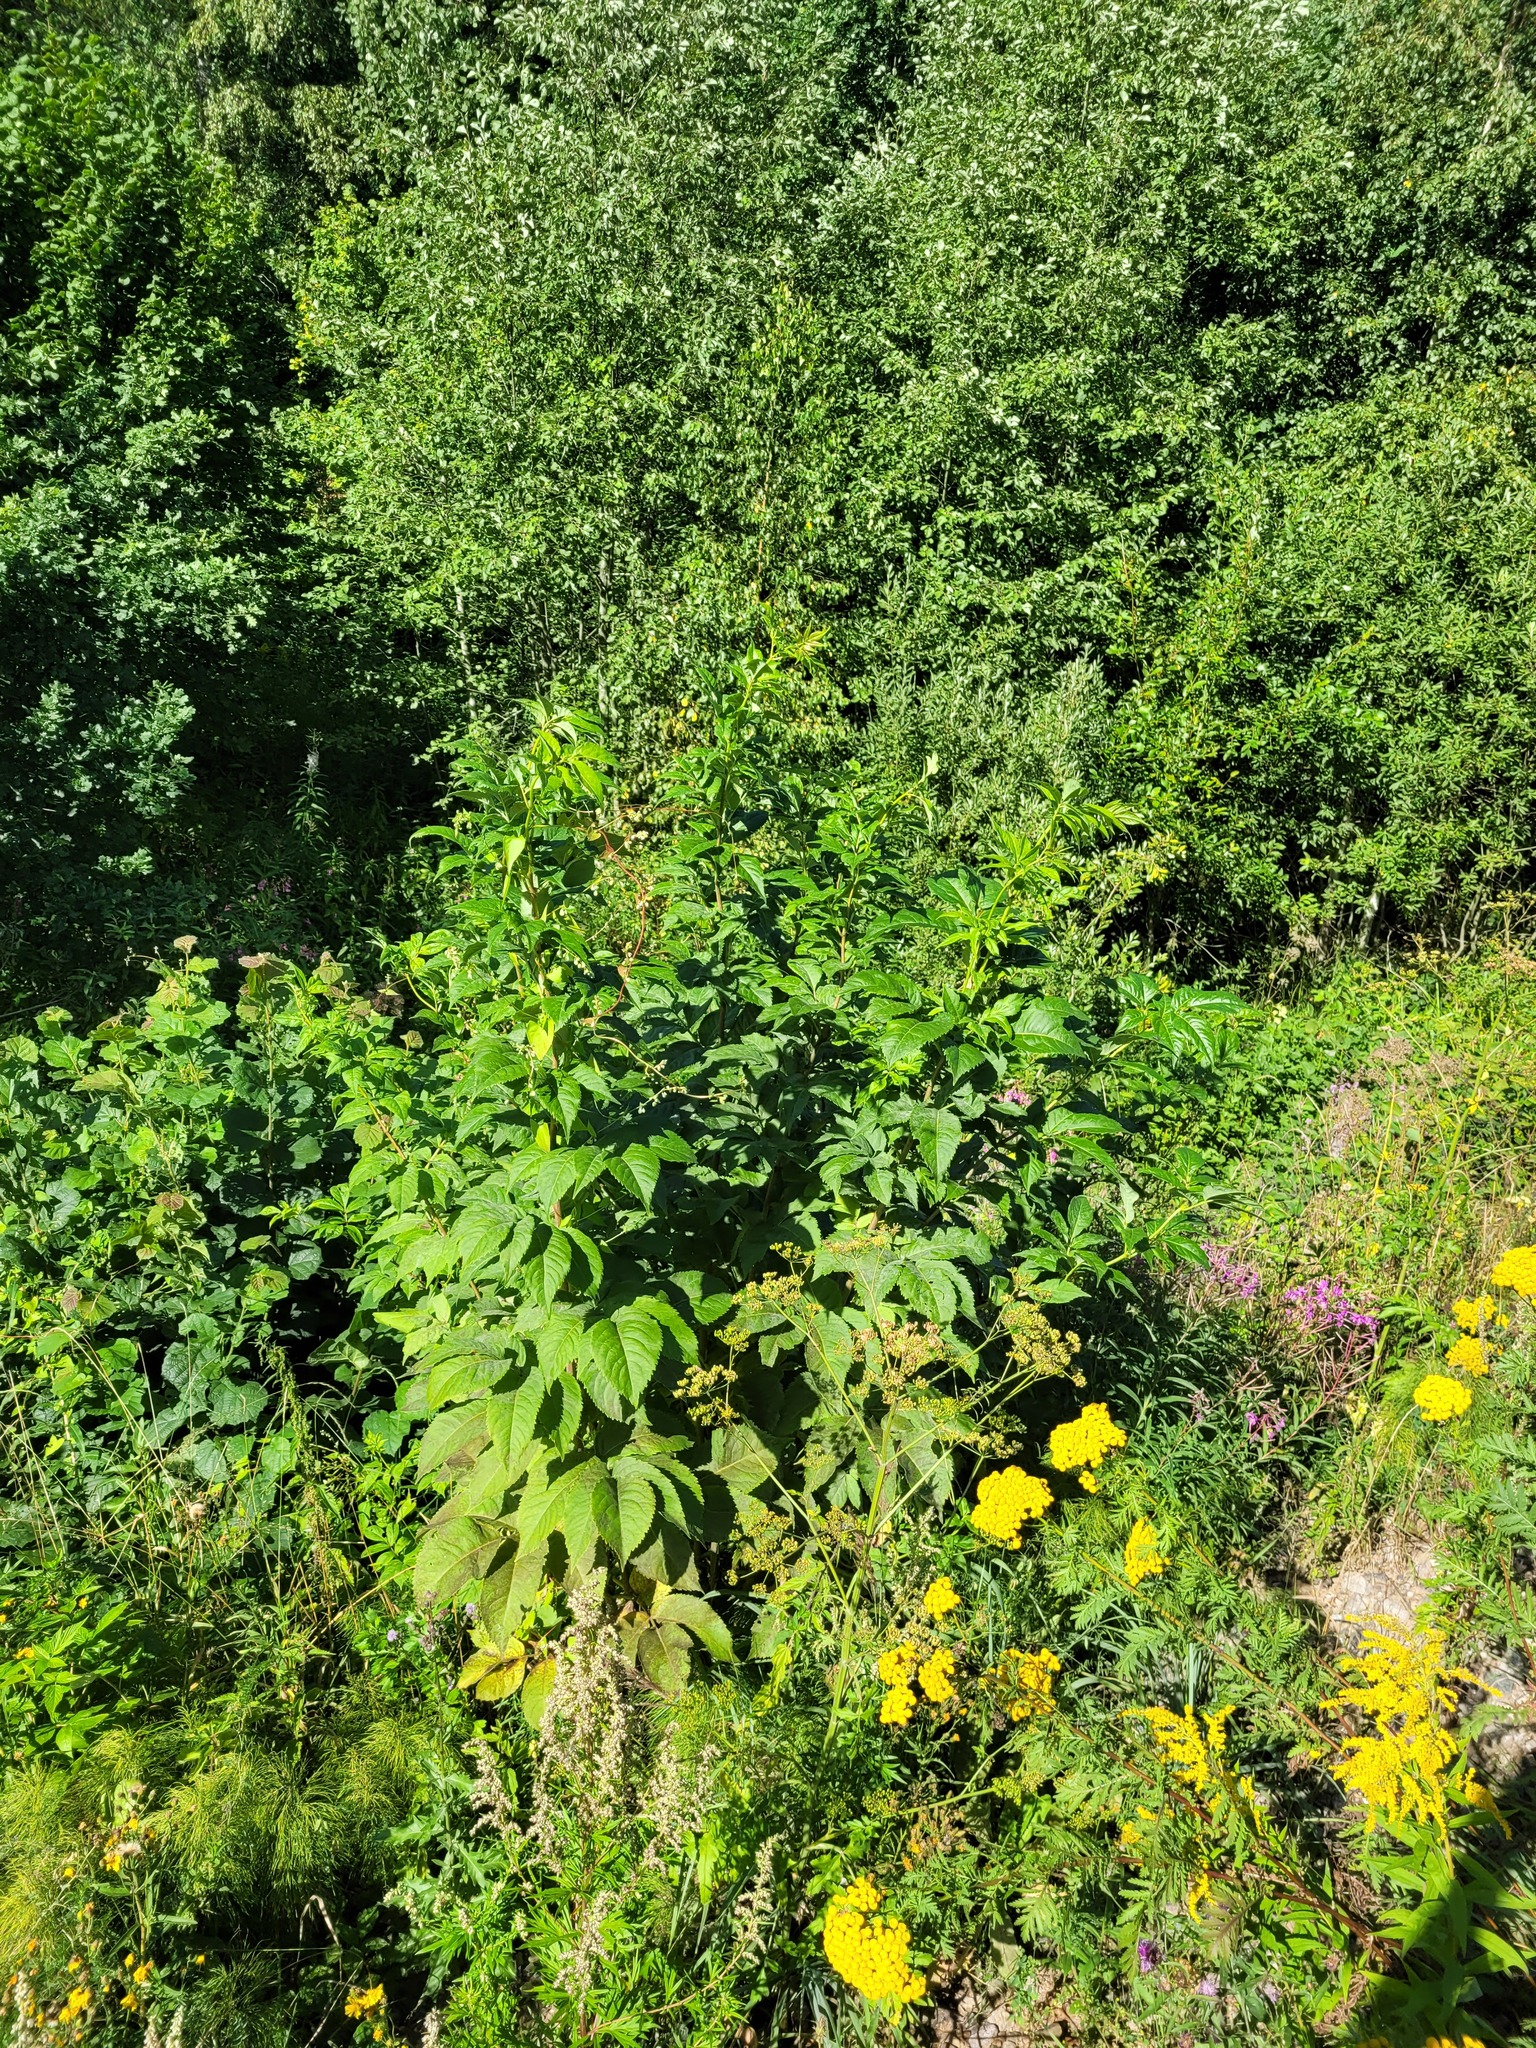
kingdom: Plantae
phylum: Tracheophyta
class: Magnoliopsida
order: Dipsacales
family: Viburnaceae
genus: Sambucus
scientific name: Sambucus racemosa
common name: Red-berried elder
